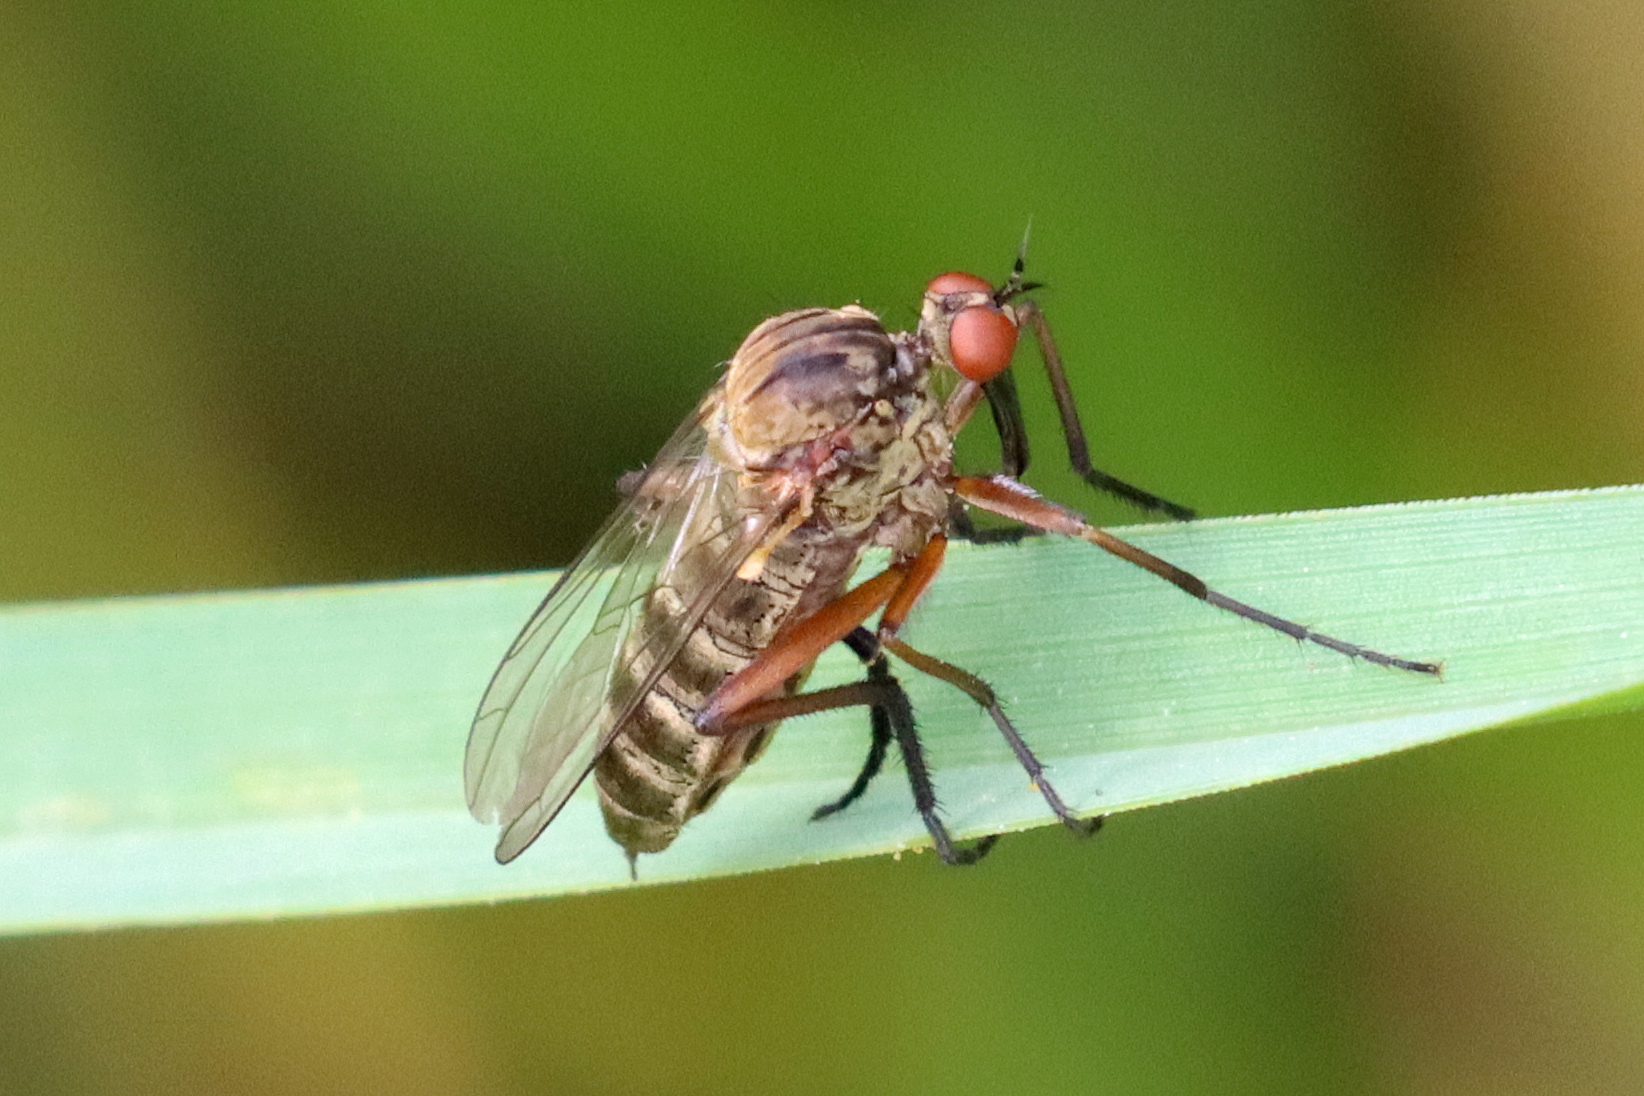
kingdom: Animalia
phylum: Arthropoda
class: Insecta
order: Diptera
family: Empididae
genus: Empis
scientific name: Empis livida
